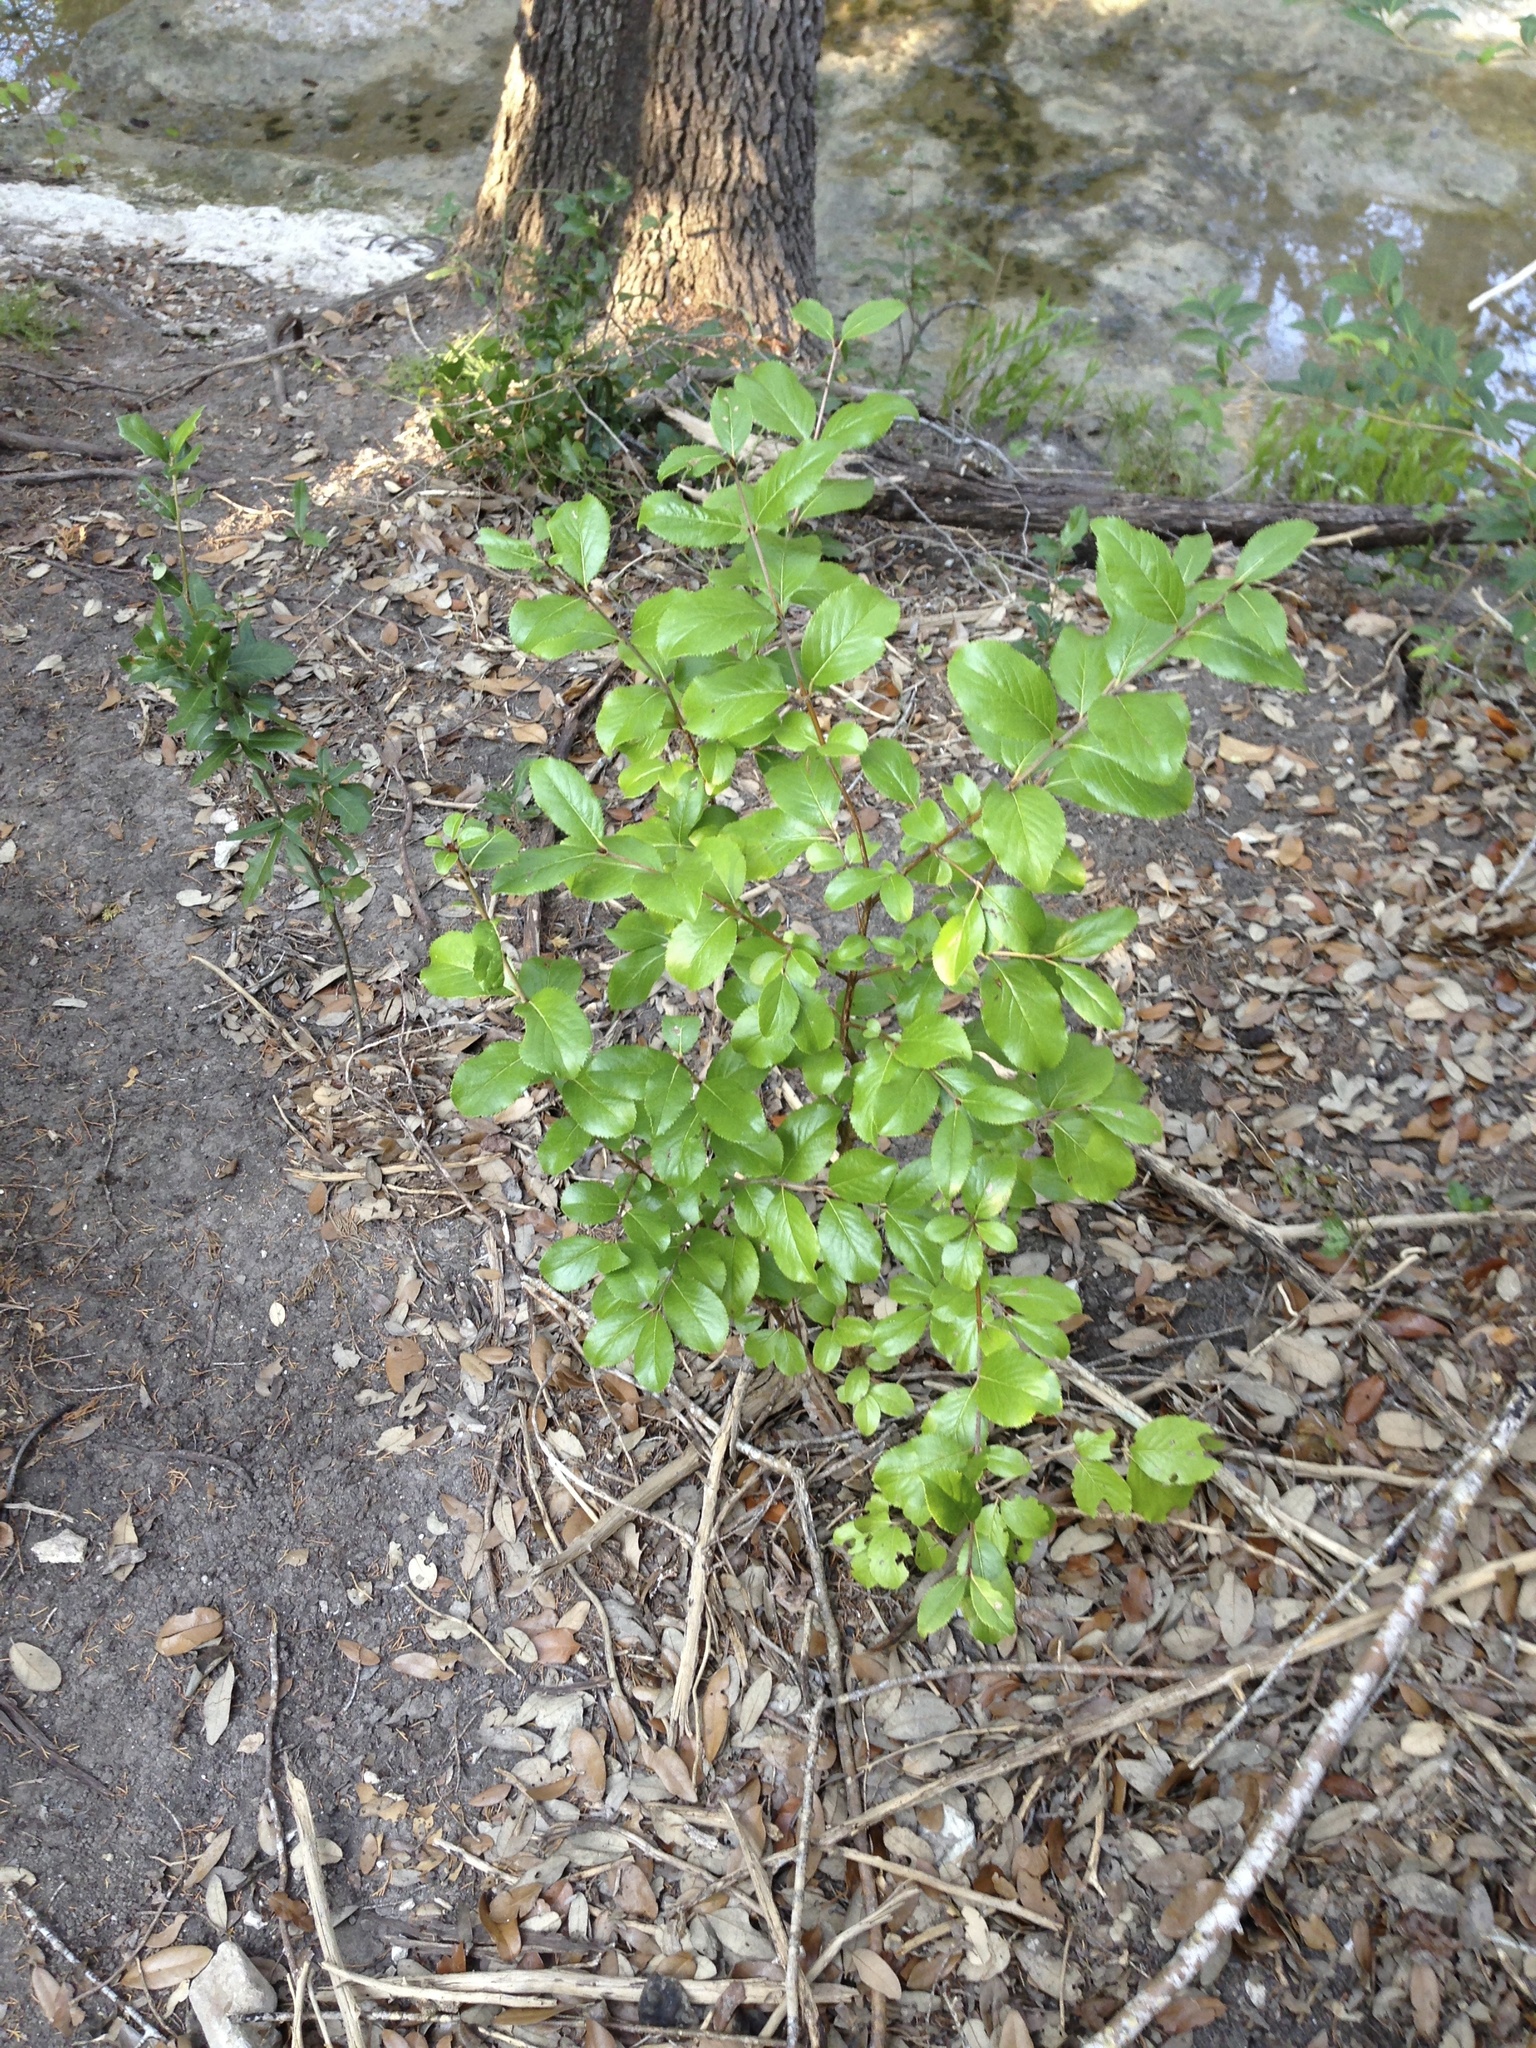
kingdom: Plantae
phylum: Tracheophyta
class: Magnoliopsida
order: Dipsacales
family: Viburnaceae
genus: Viburnum
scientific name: Viburnum rufidulum
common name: Blue haw
